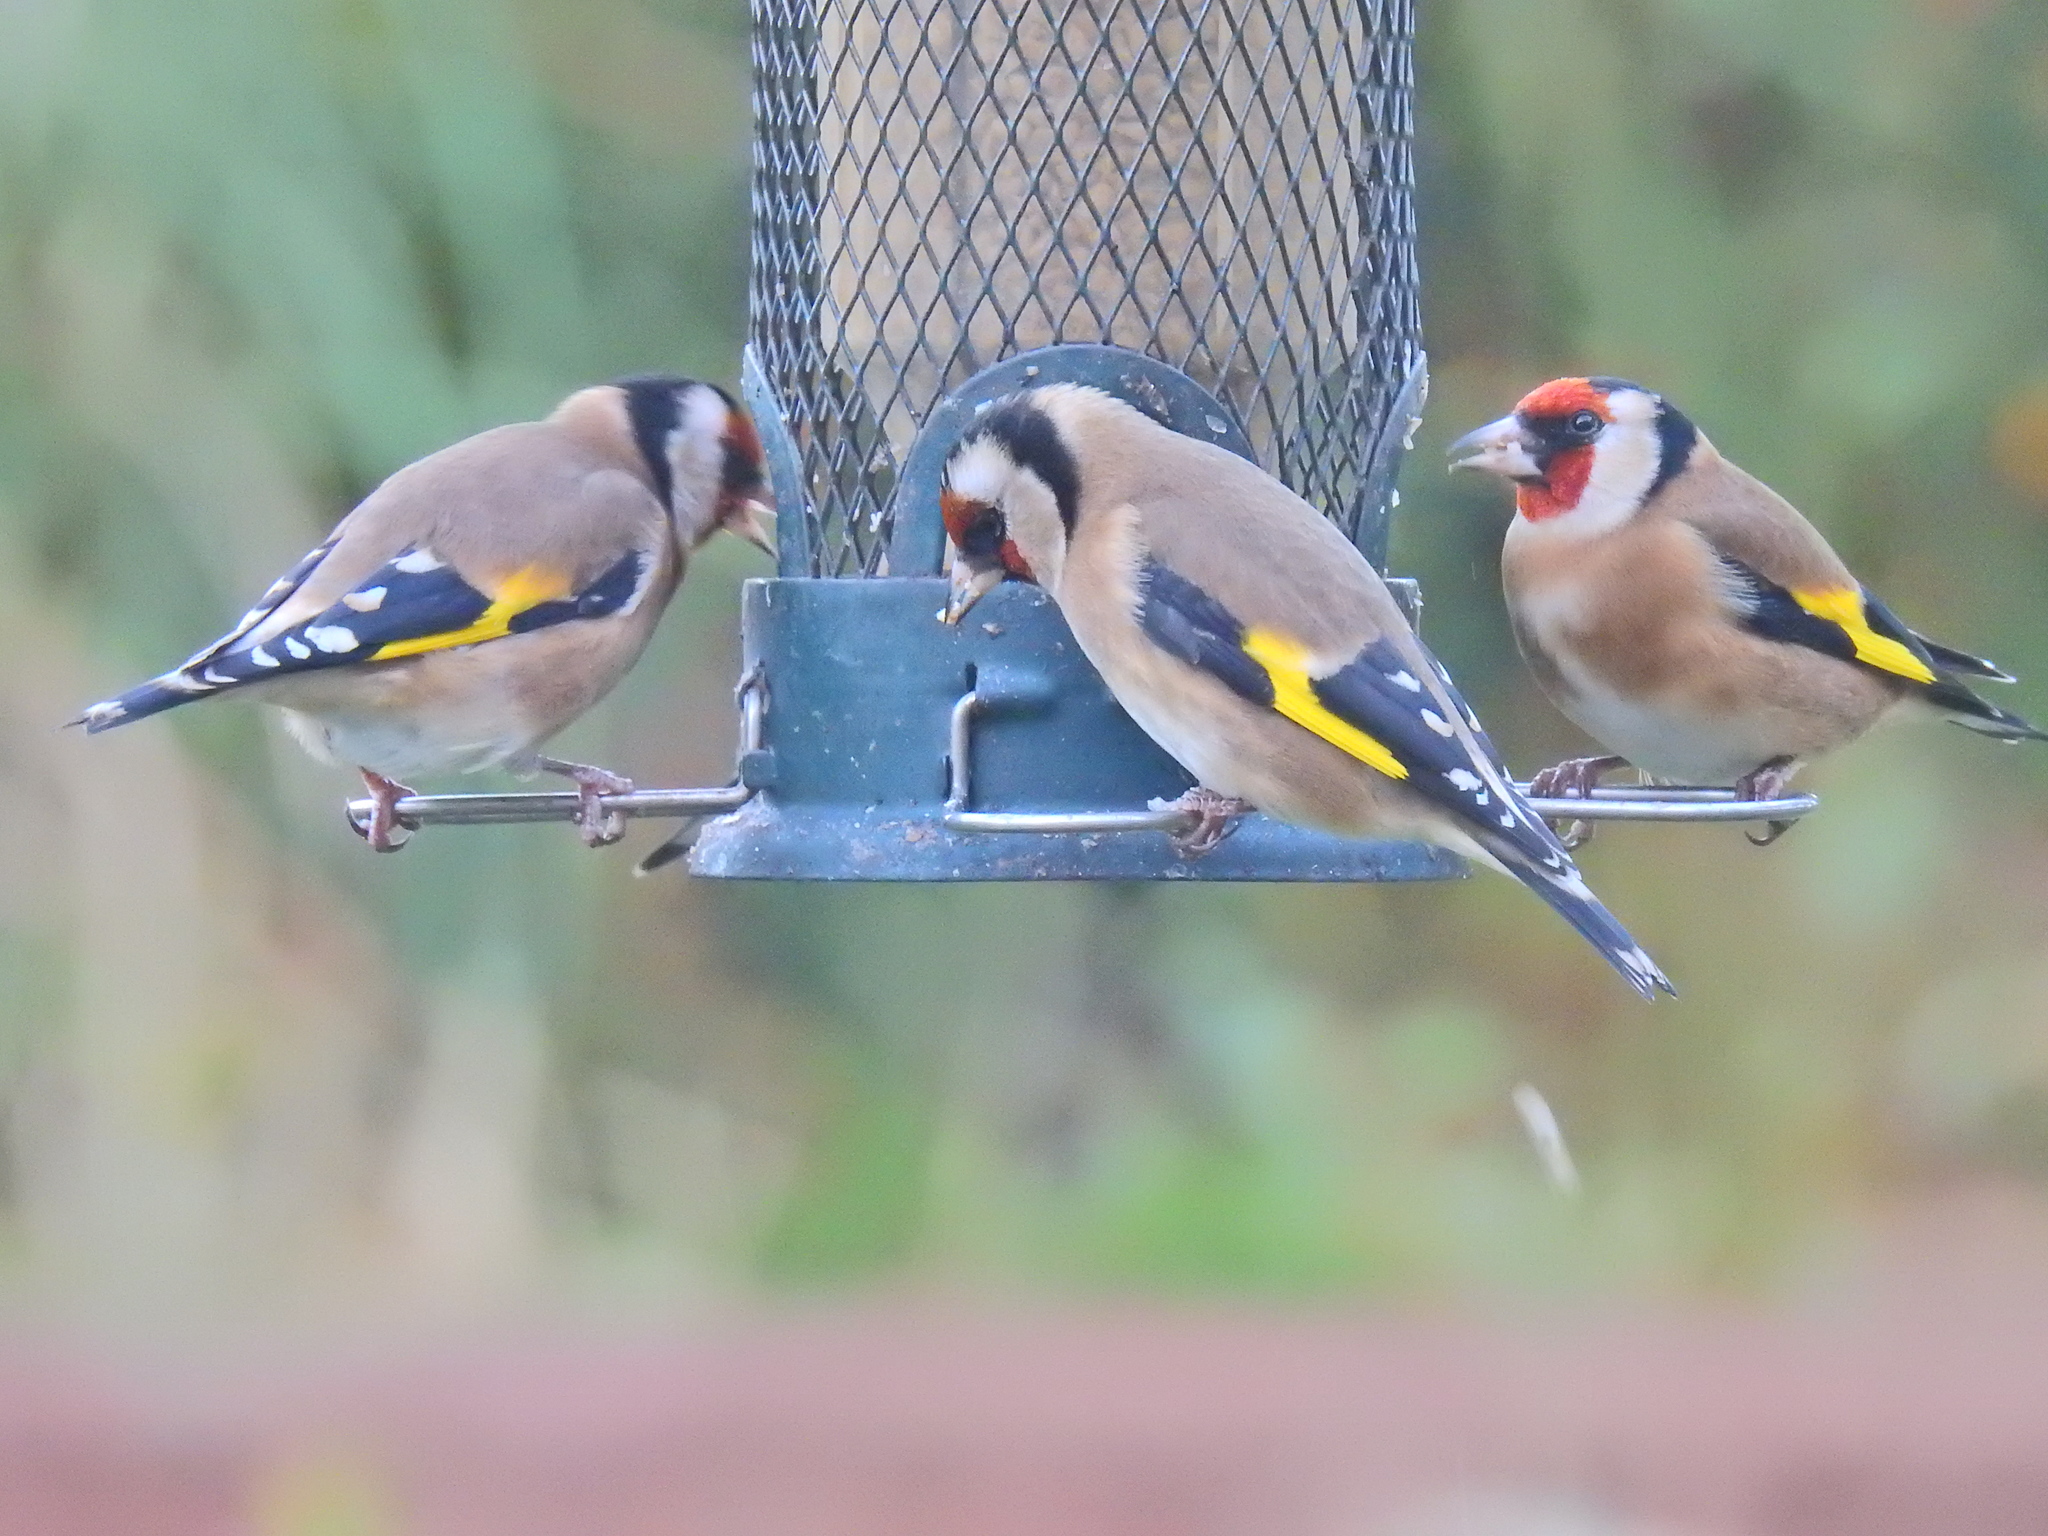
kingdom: Animalia
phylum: Chordata
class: Aves
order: Passeriformes
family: Fringillidae
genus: Carduelis
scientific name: Carduelis carduelis
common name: European goldfinch
